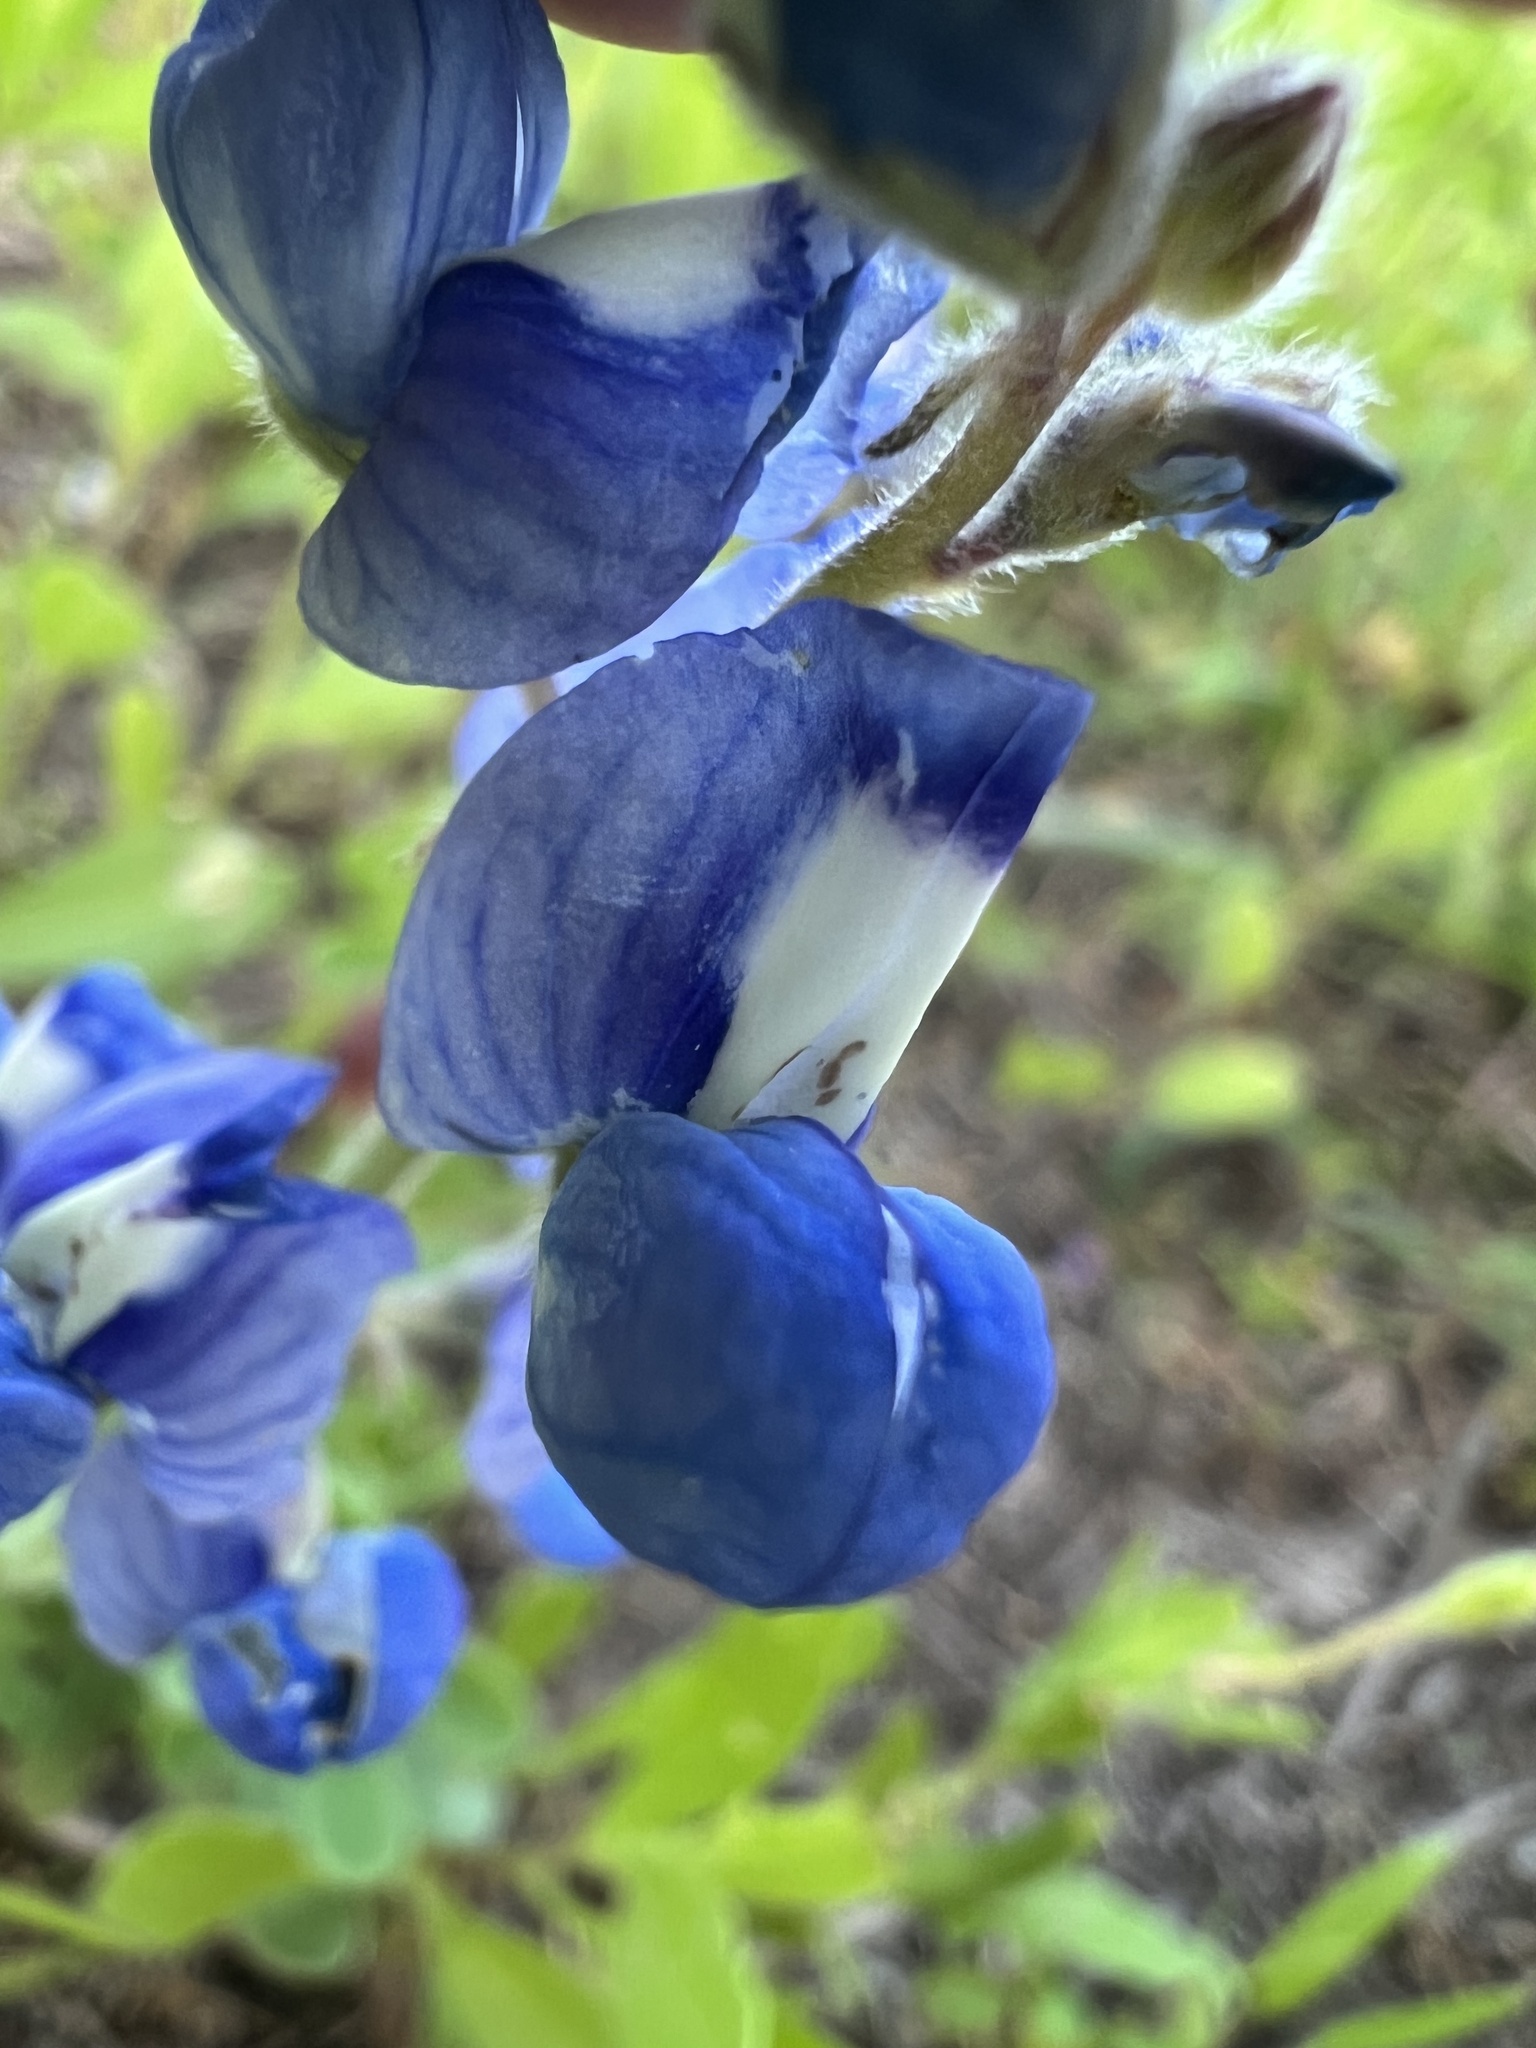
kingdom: Plantae
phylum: Tracheophyta
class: Magnoliopsida
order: Fabales
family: Fabaceae
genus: Lupinus
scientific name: Lupinus subcarnosus
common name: Texas bluebonnet
